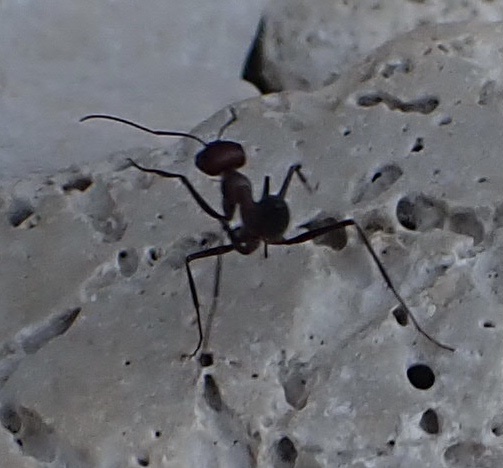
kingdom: Animalia
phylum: Arthropoda
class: Insecta
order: Hymenoptera
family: Formicidae
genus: Cataglyphis
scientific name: Cataglyphis nodus
